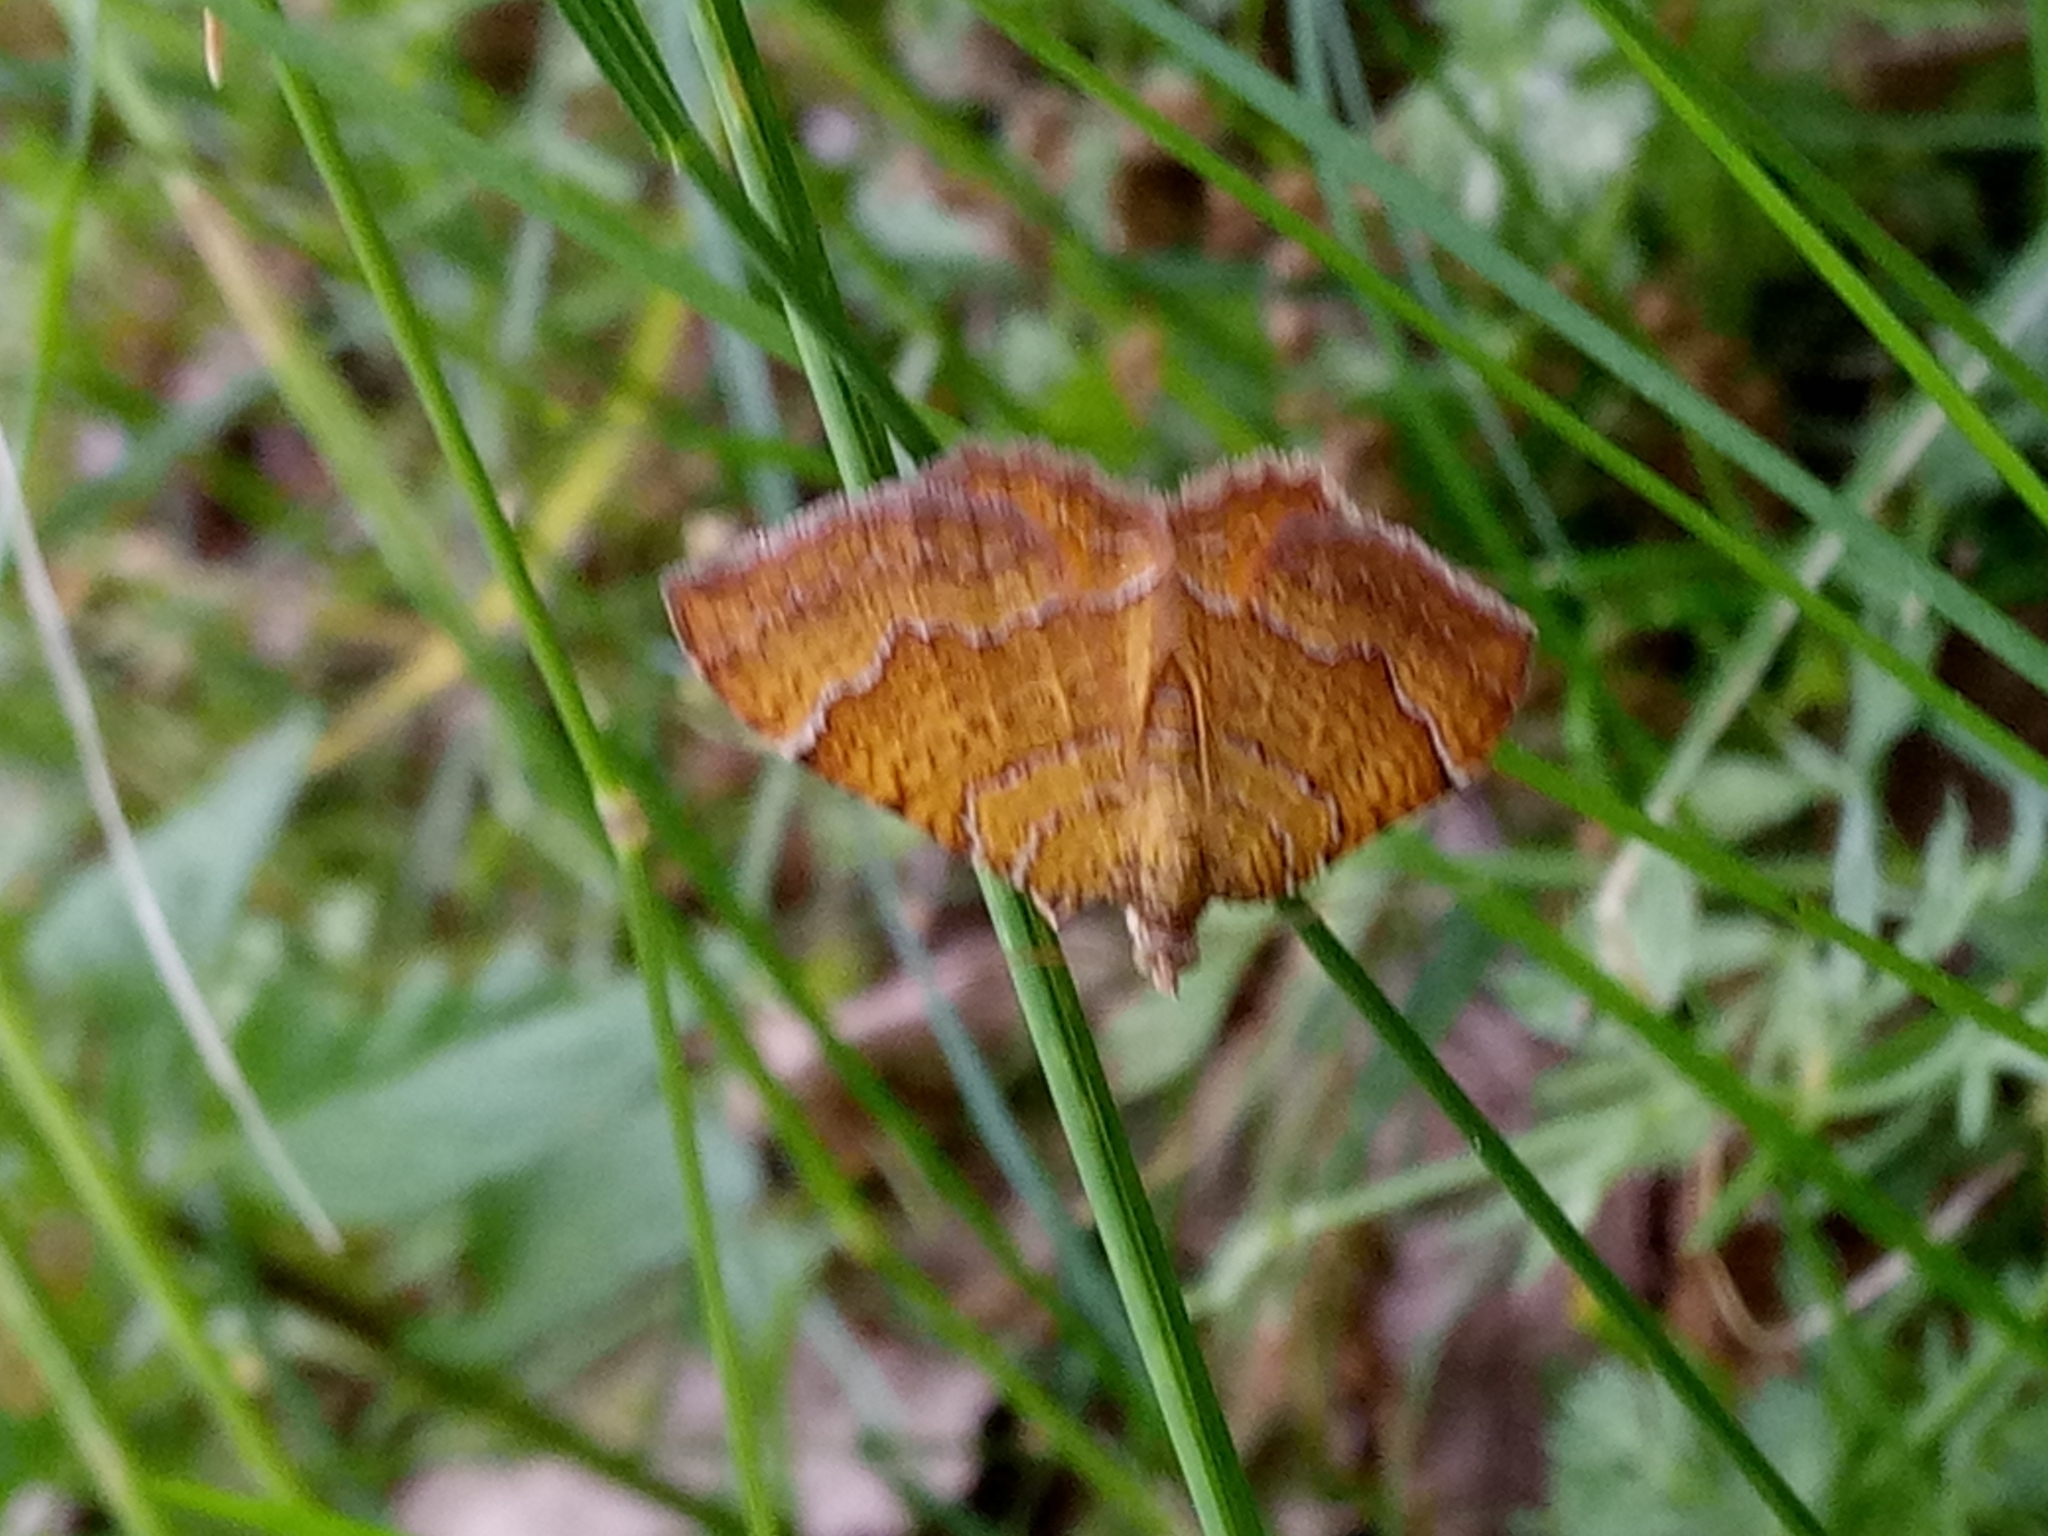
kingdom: Animalia
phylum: Arthropoda
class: Insecta
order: Lepidoptera
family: Geometridae
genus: Camptogramma
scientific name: Camptogramma bilineata
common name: Yellow shell
